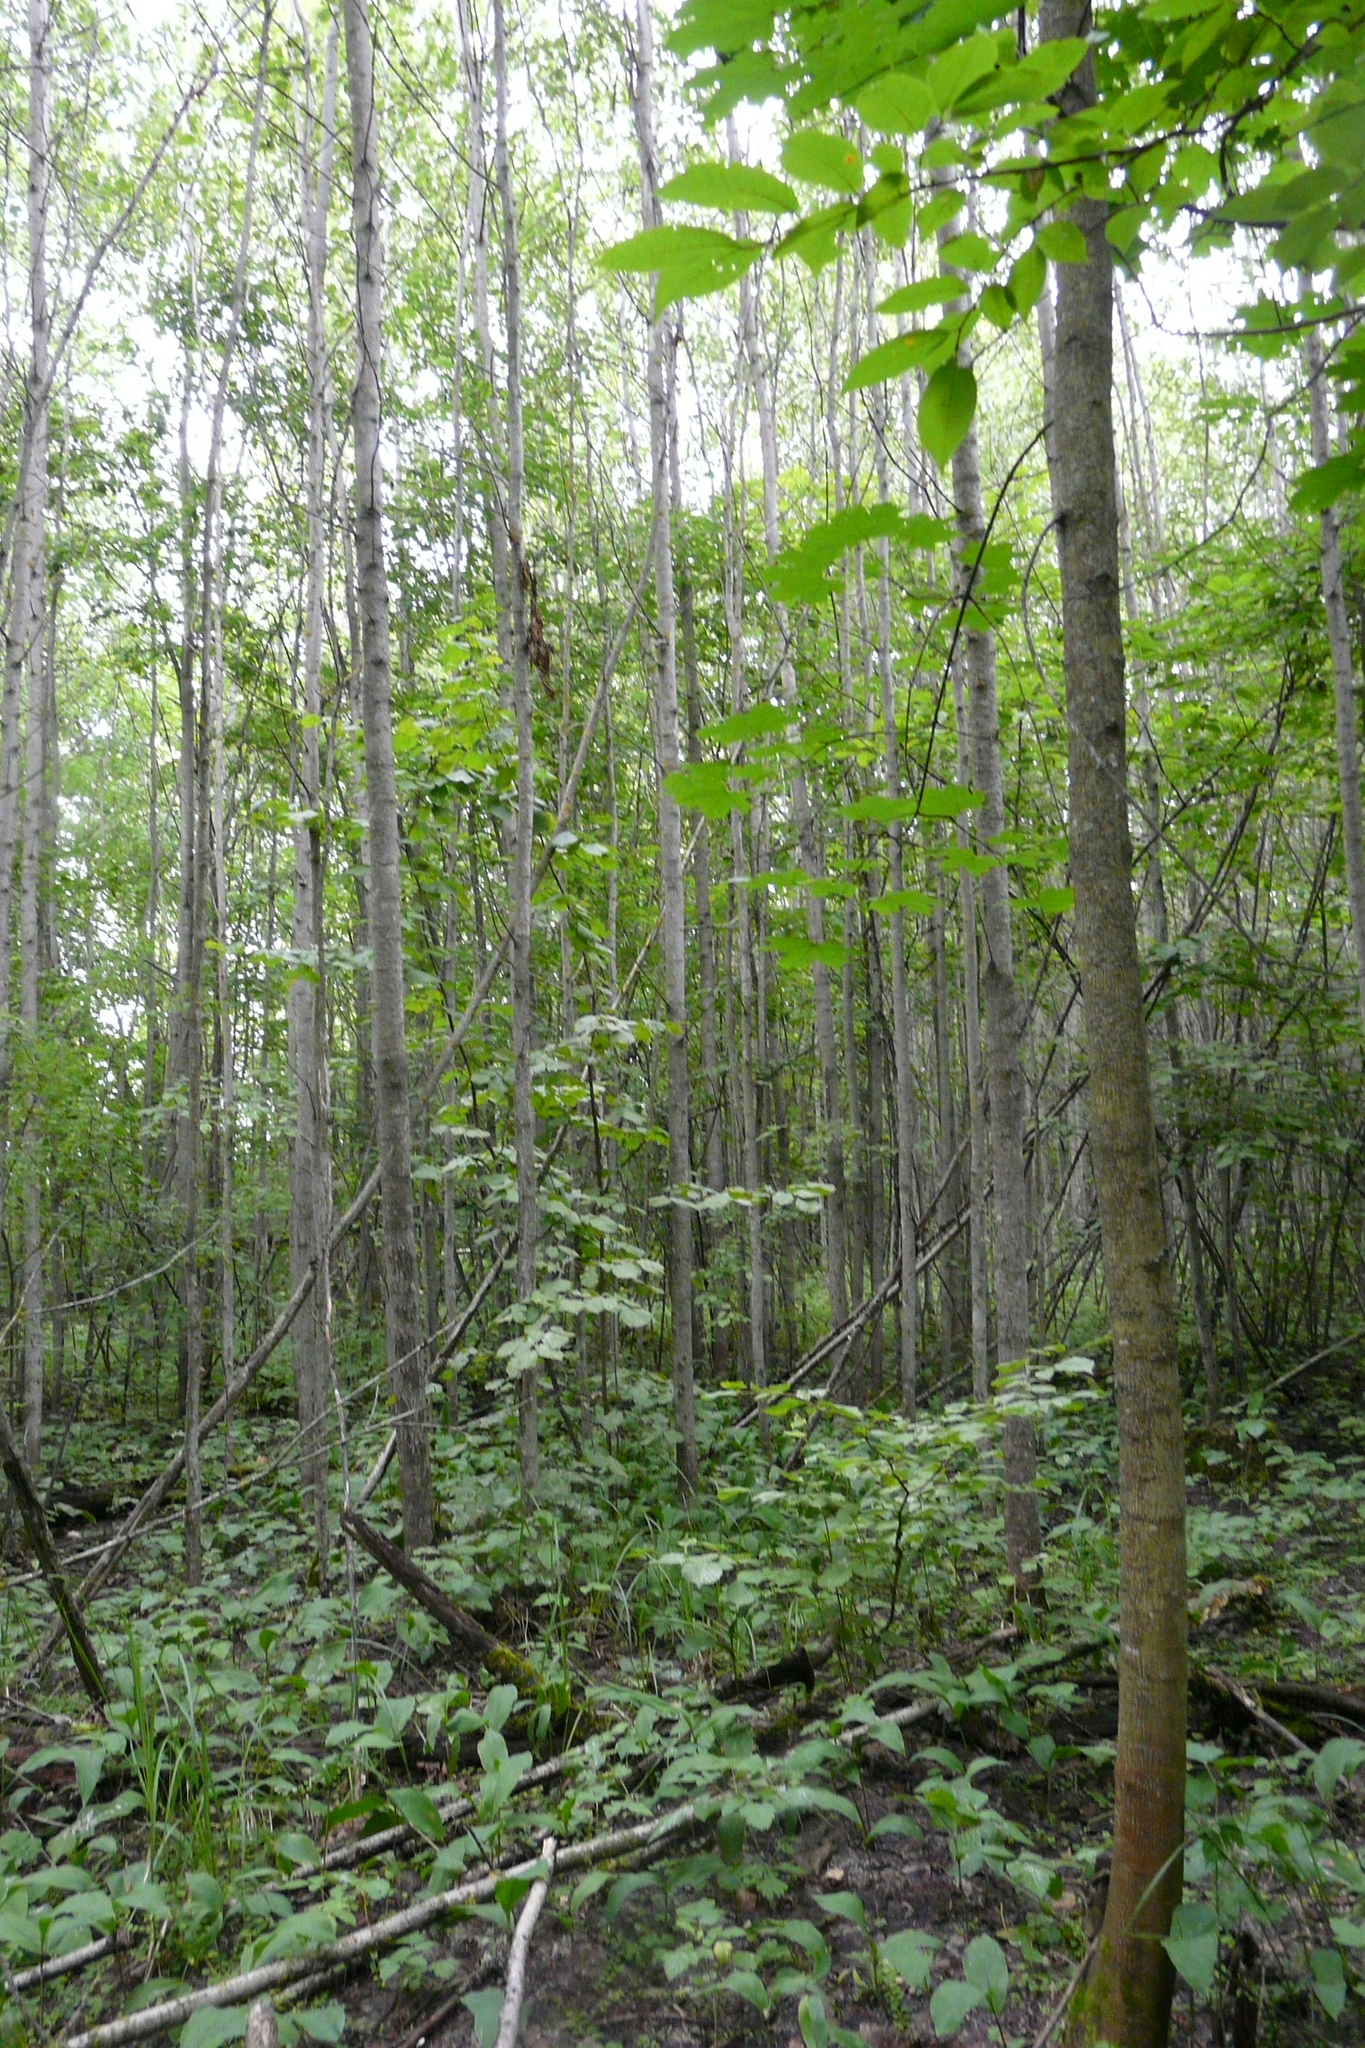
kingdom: Plantae
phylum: Tracheophyta
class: Magnoliopsida
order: Malpighiales
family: Salicaceae
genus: Populus
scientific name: Populus tremula
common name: European aspen
